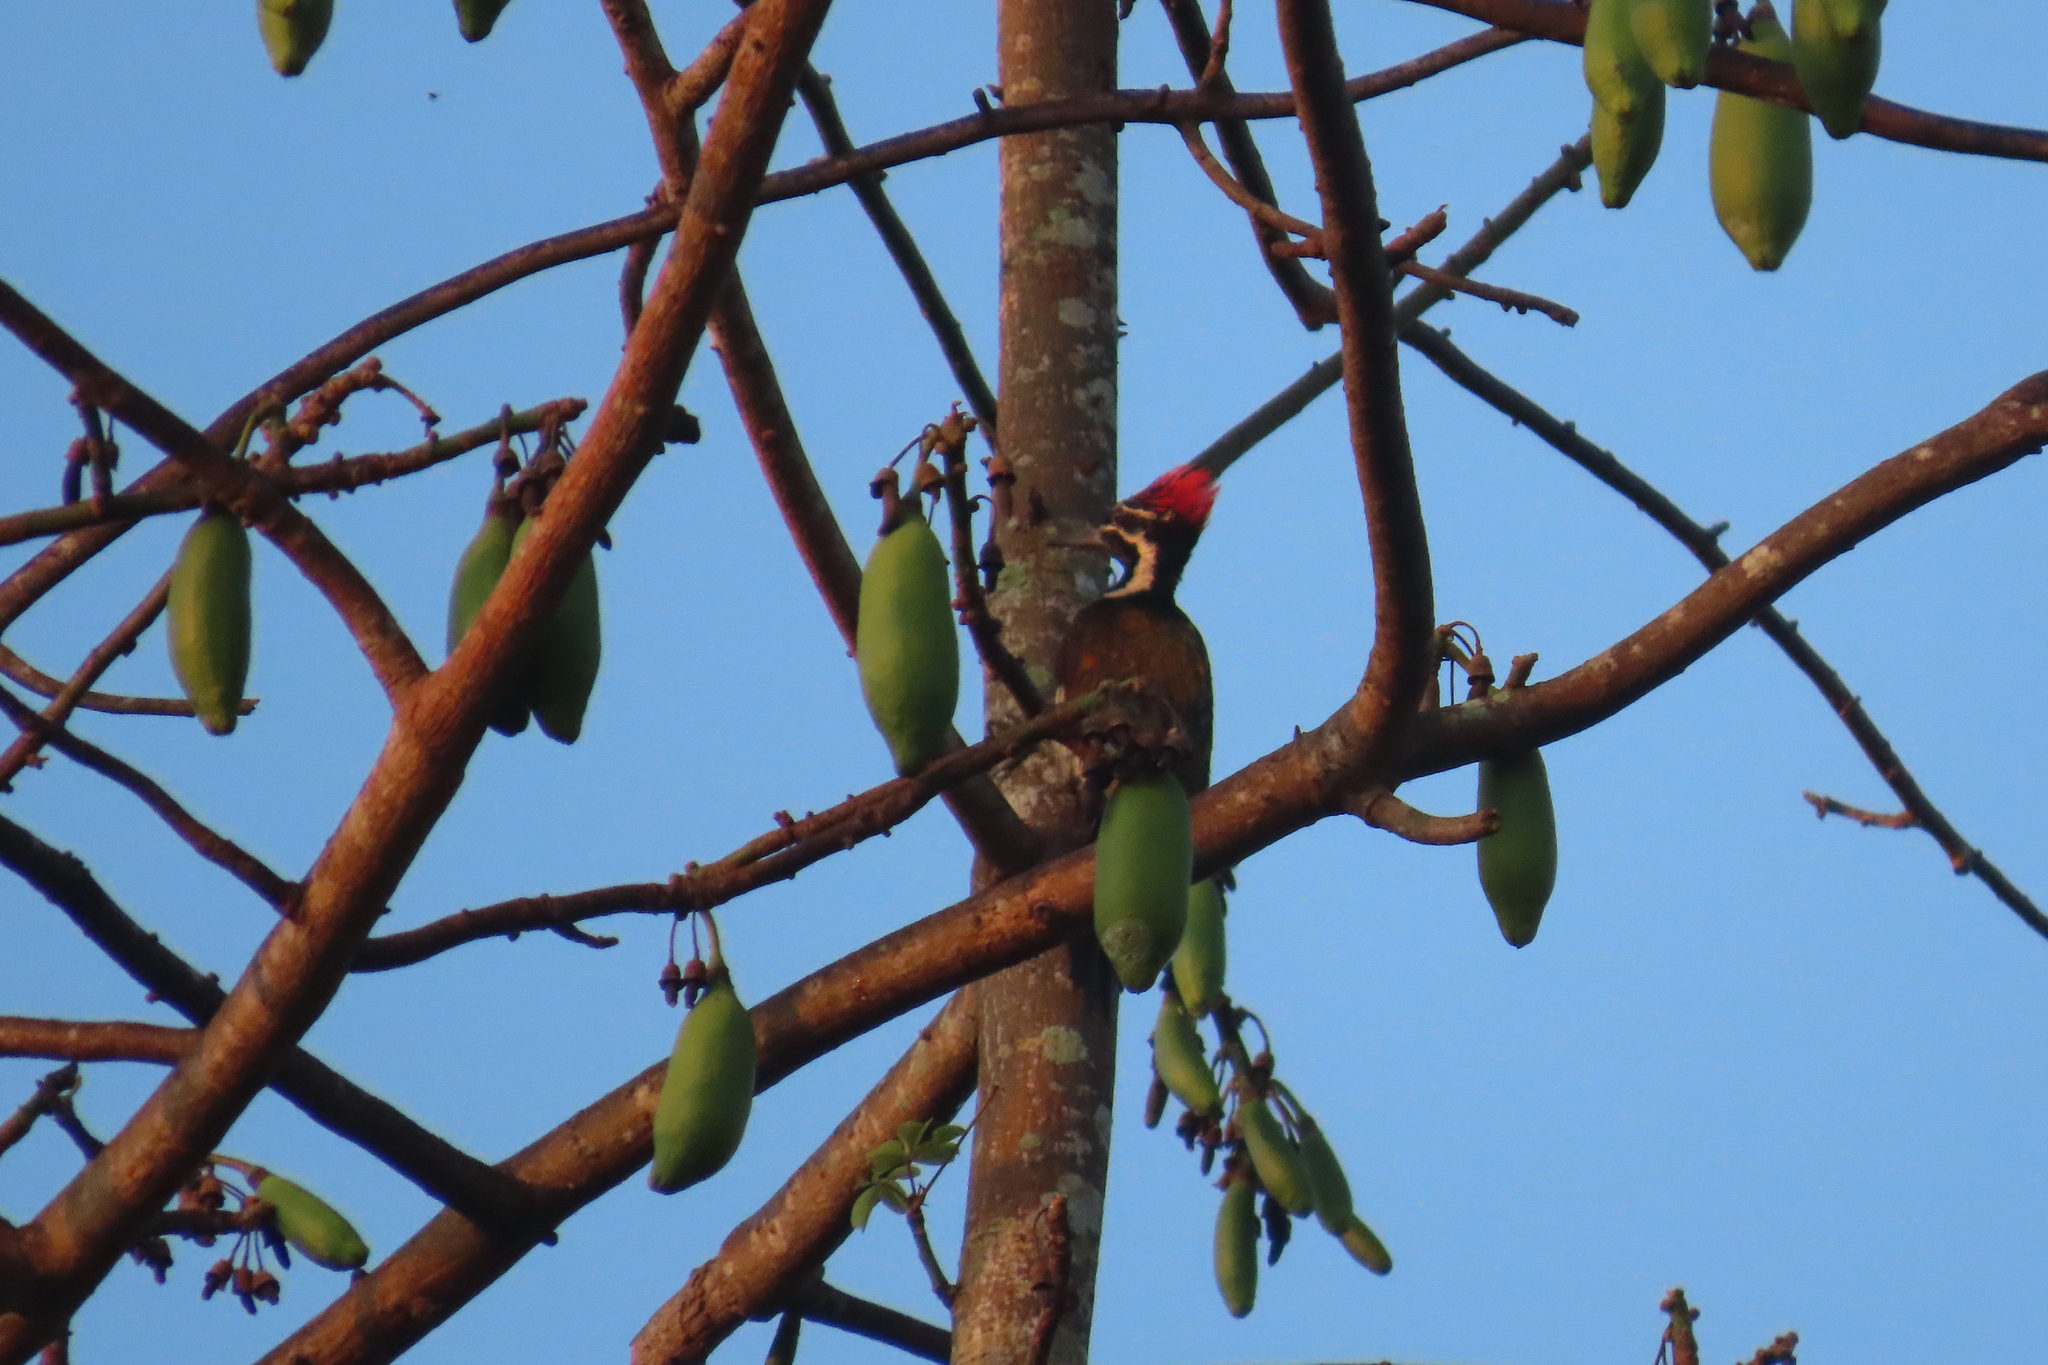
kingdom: Animalia
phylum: Chordata
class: Aves
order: Piciformes
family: Picidae
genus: Dinopium
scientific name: Dinopium benghalense
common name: Black-rumped flameback
